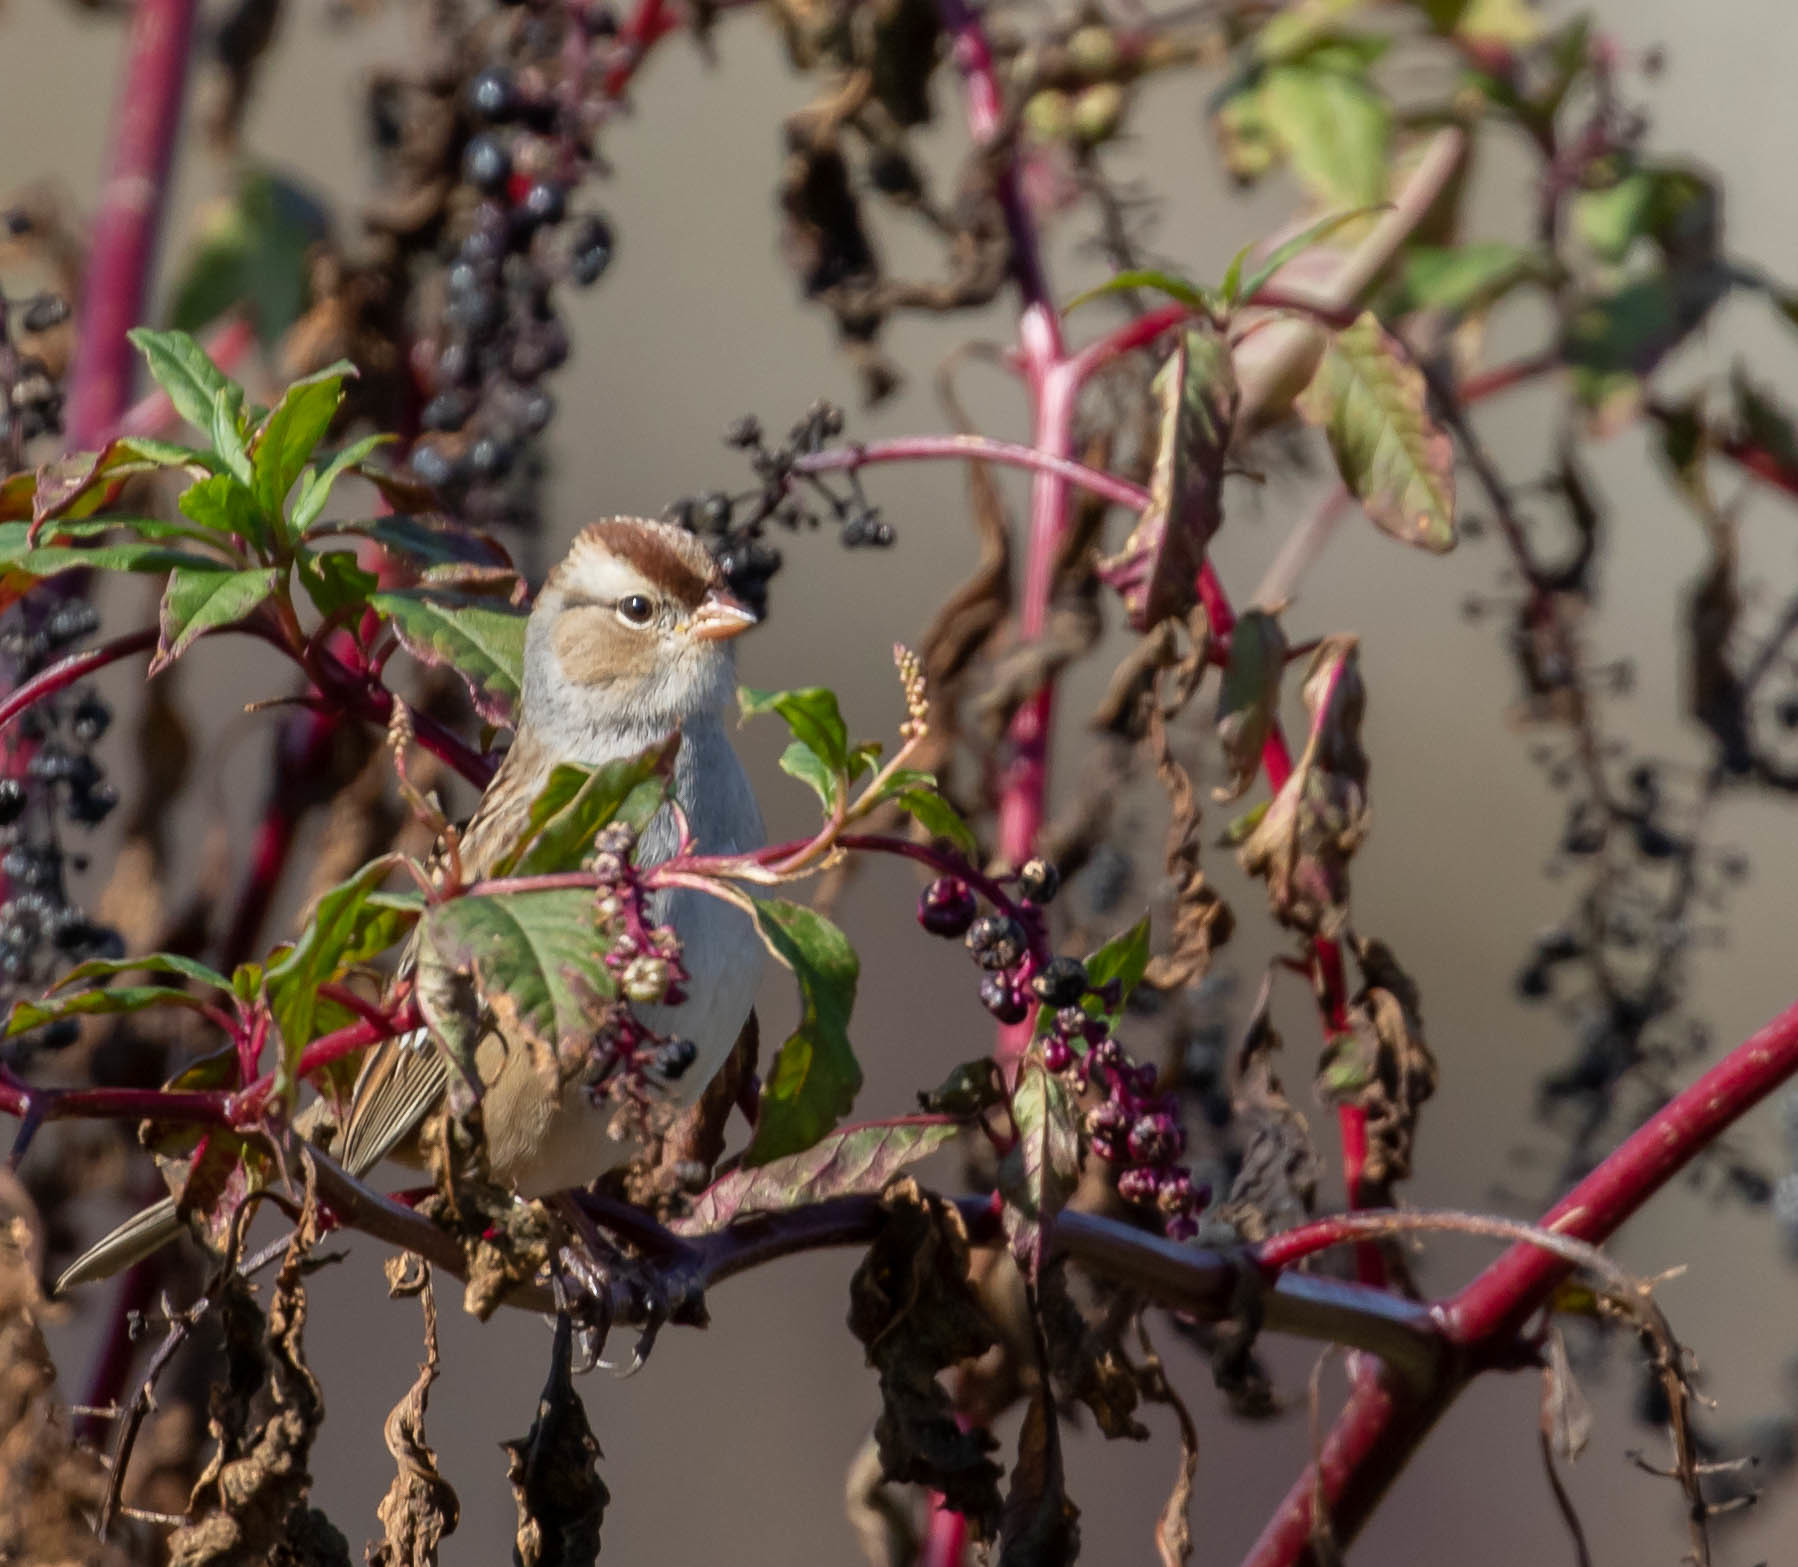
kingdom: Animalia
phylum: Chordata
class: Aves
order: Passeriformes
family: Passerellidae
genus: Zonotrichia
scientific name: Zonotrichia leucophrys
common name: White-crowned sparrow
